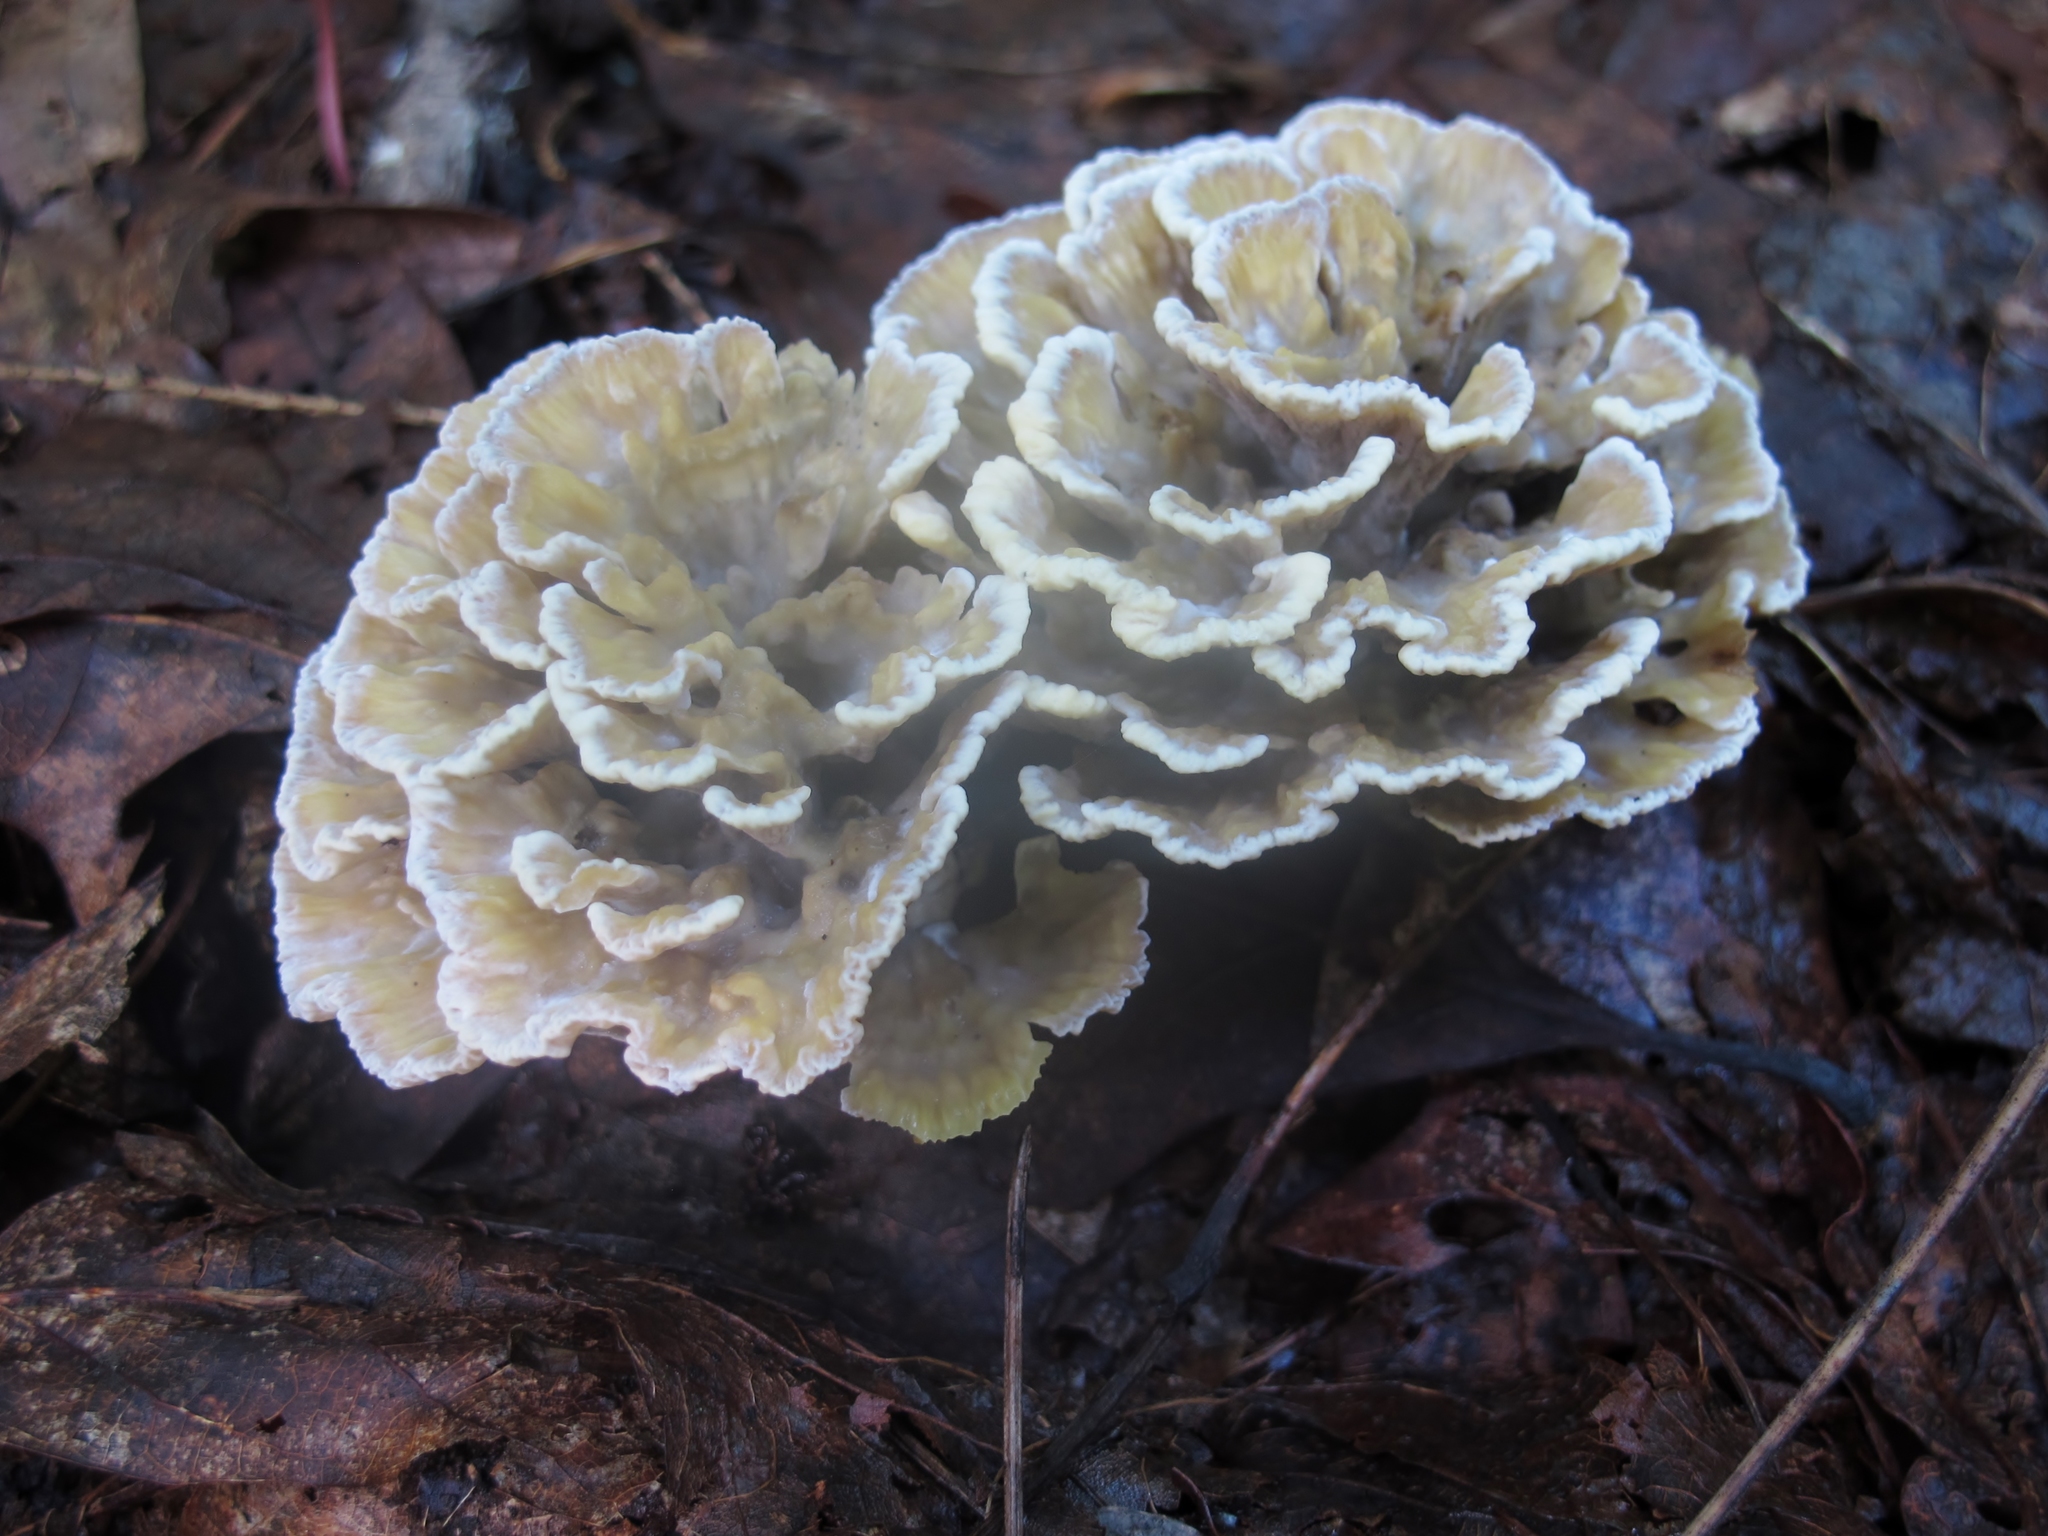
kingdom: Fungi
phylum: Basidiomycota
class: Agaricomycetes
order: Thelephorales
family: Thelephoraceae
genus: Thelephora
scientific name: Thelephora vialis
